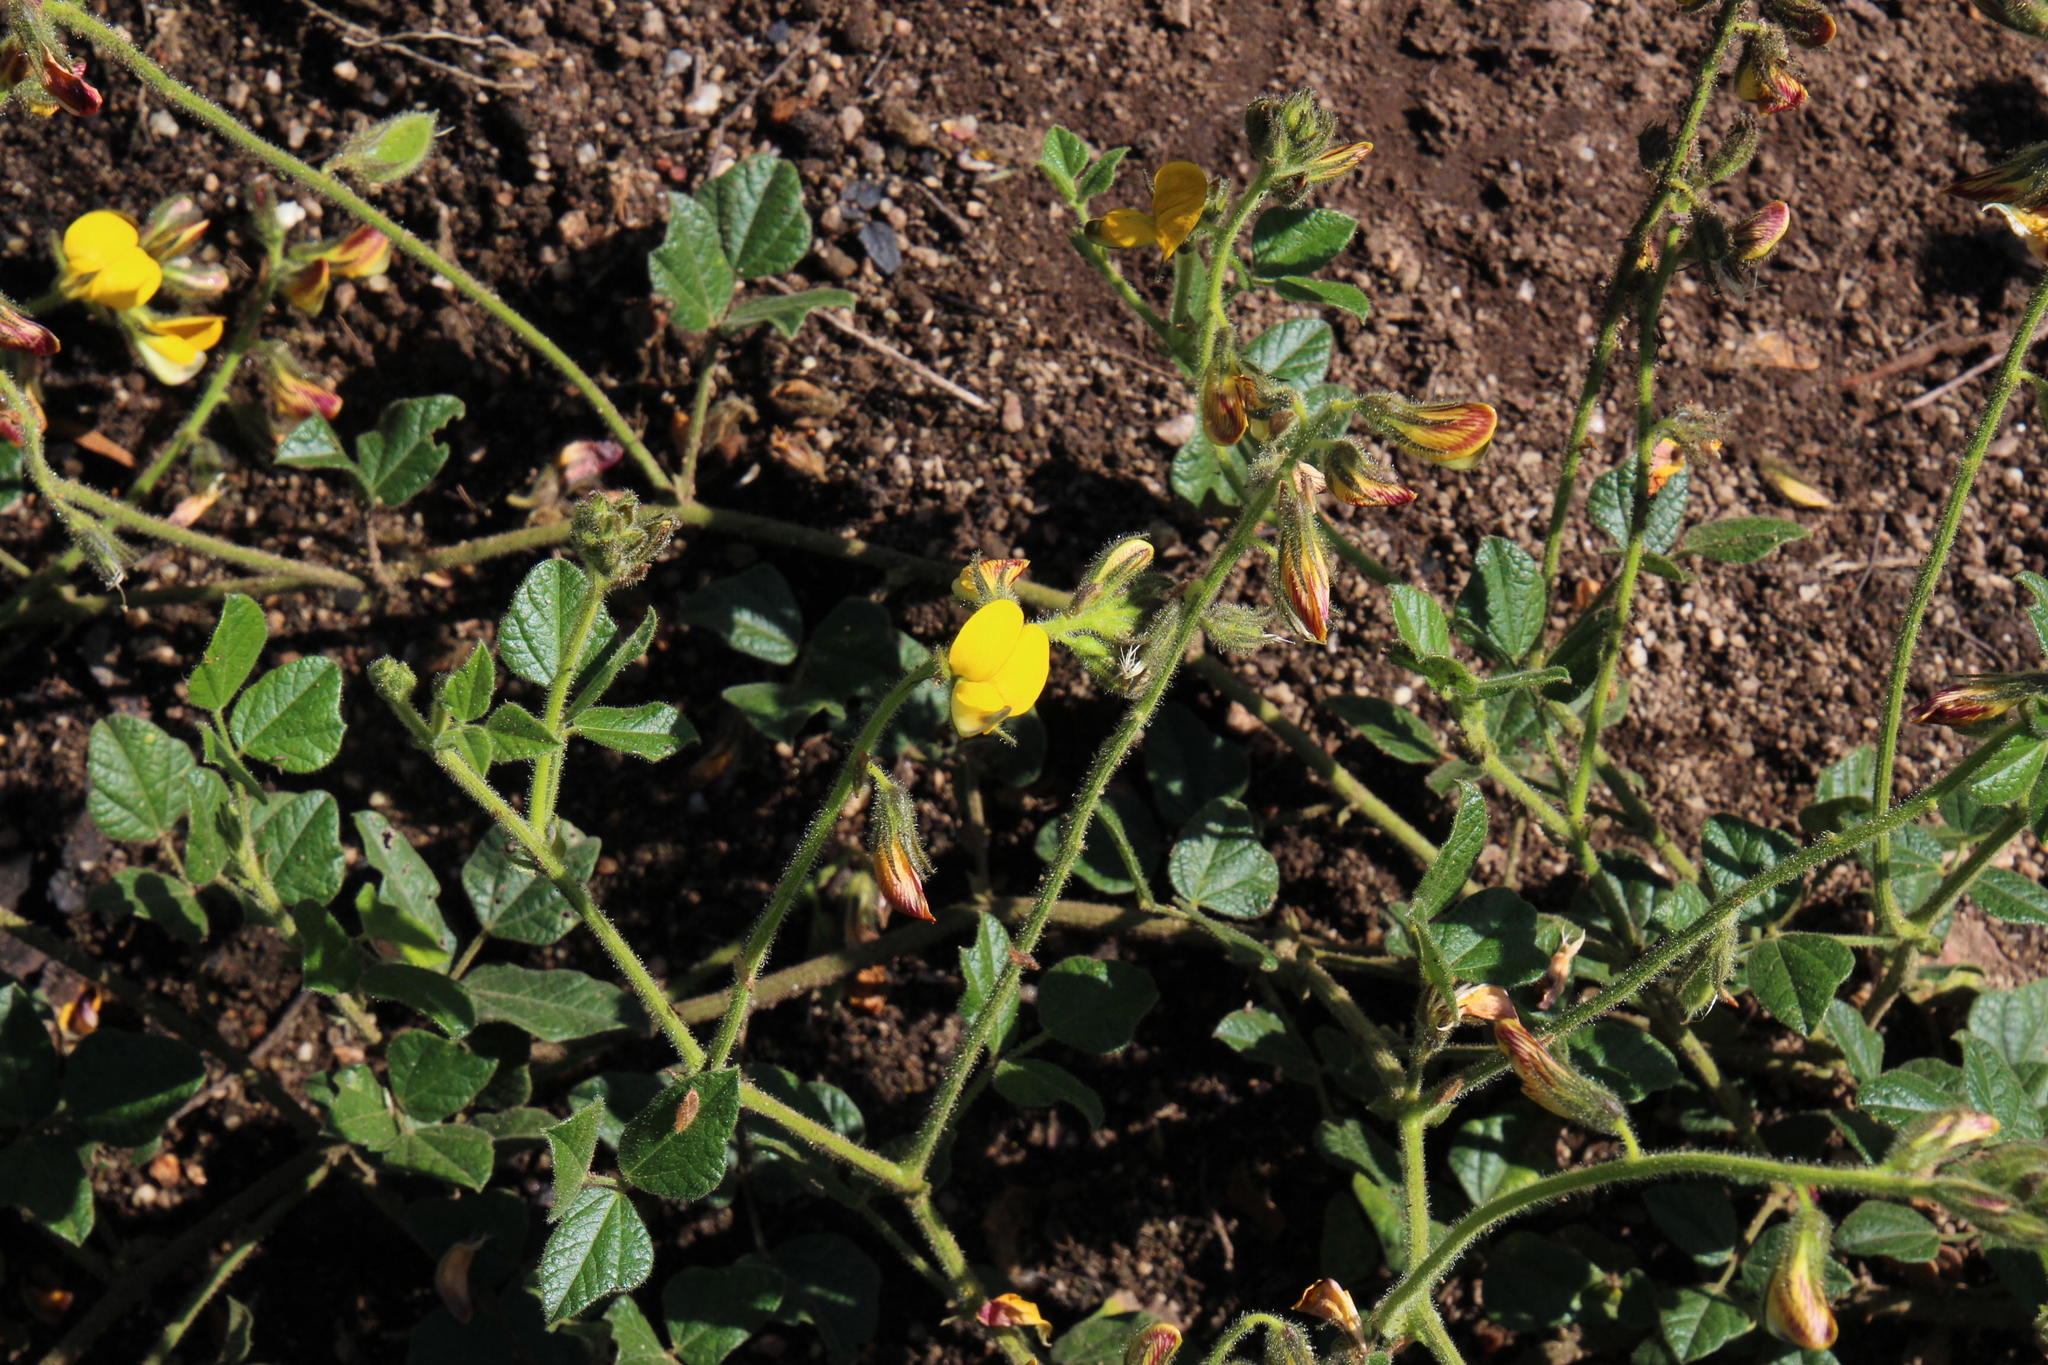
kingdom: Plantae
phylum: Tracheophyta
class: Magnoliopsida
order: Fabales
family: Fabaceae
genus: Bolusafra
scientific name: Bolusafra bituminosa
